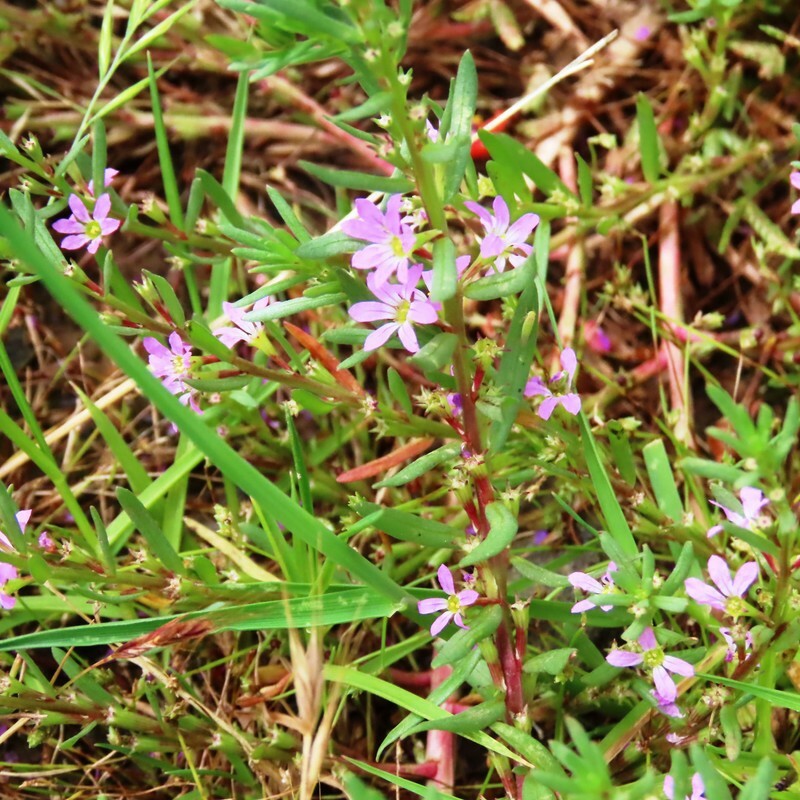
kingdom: Plantae
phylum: Tracheophyta
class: Magnoliopsida
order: Myrtales
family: Lythraceae
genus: Lythrum
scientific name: Lythrum hyssopifolia
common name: Grass-poly
